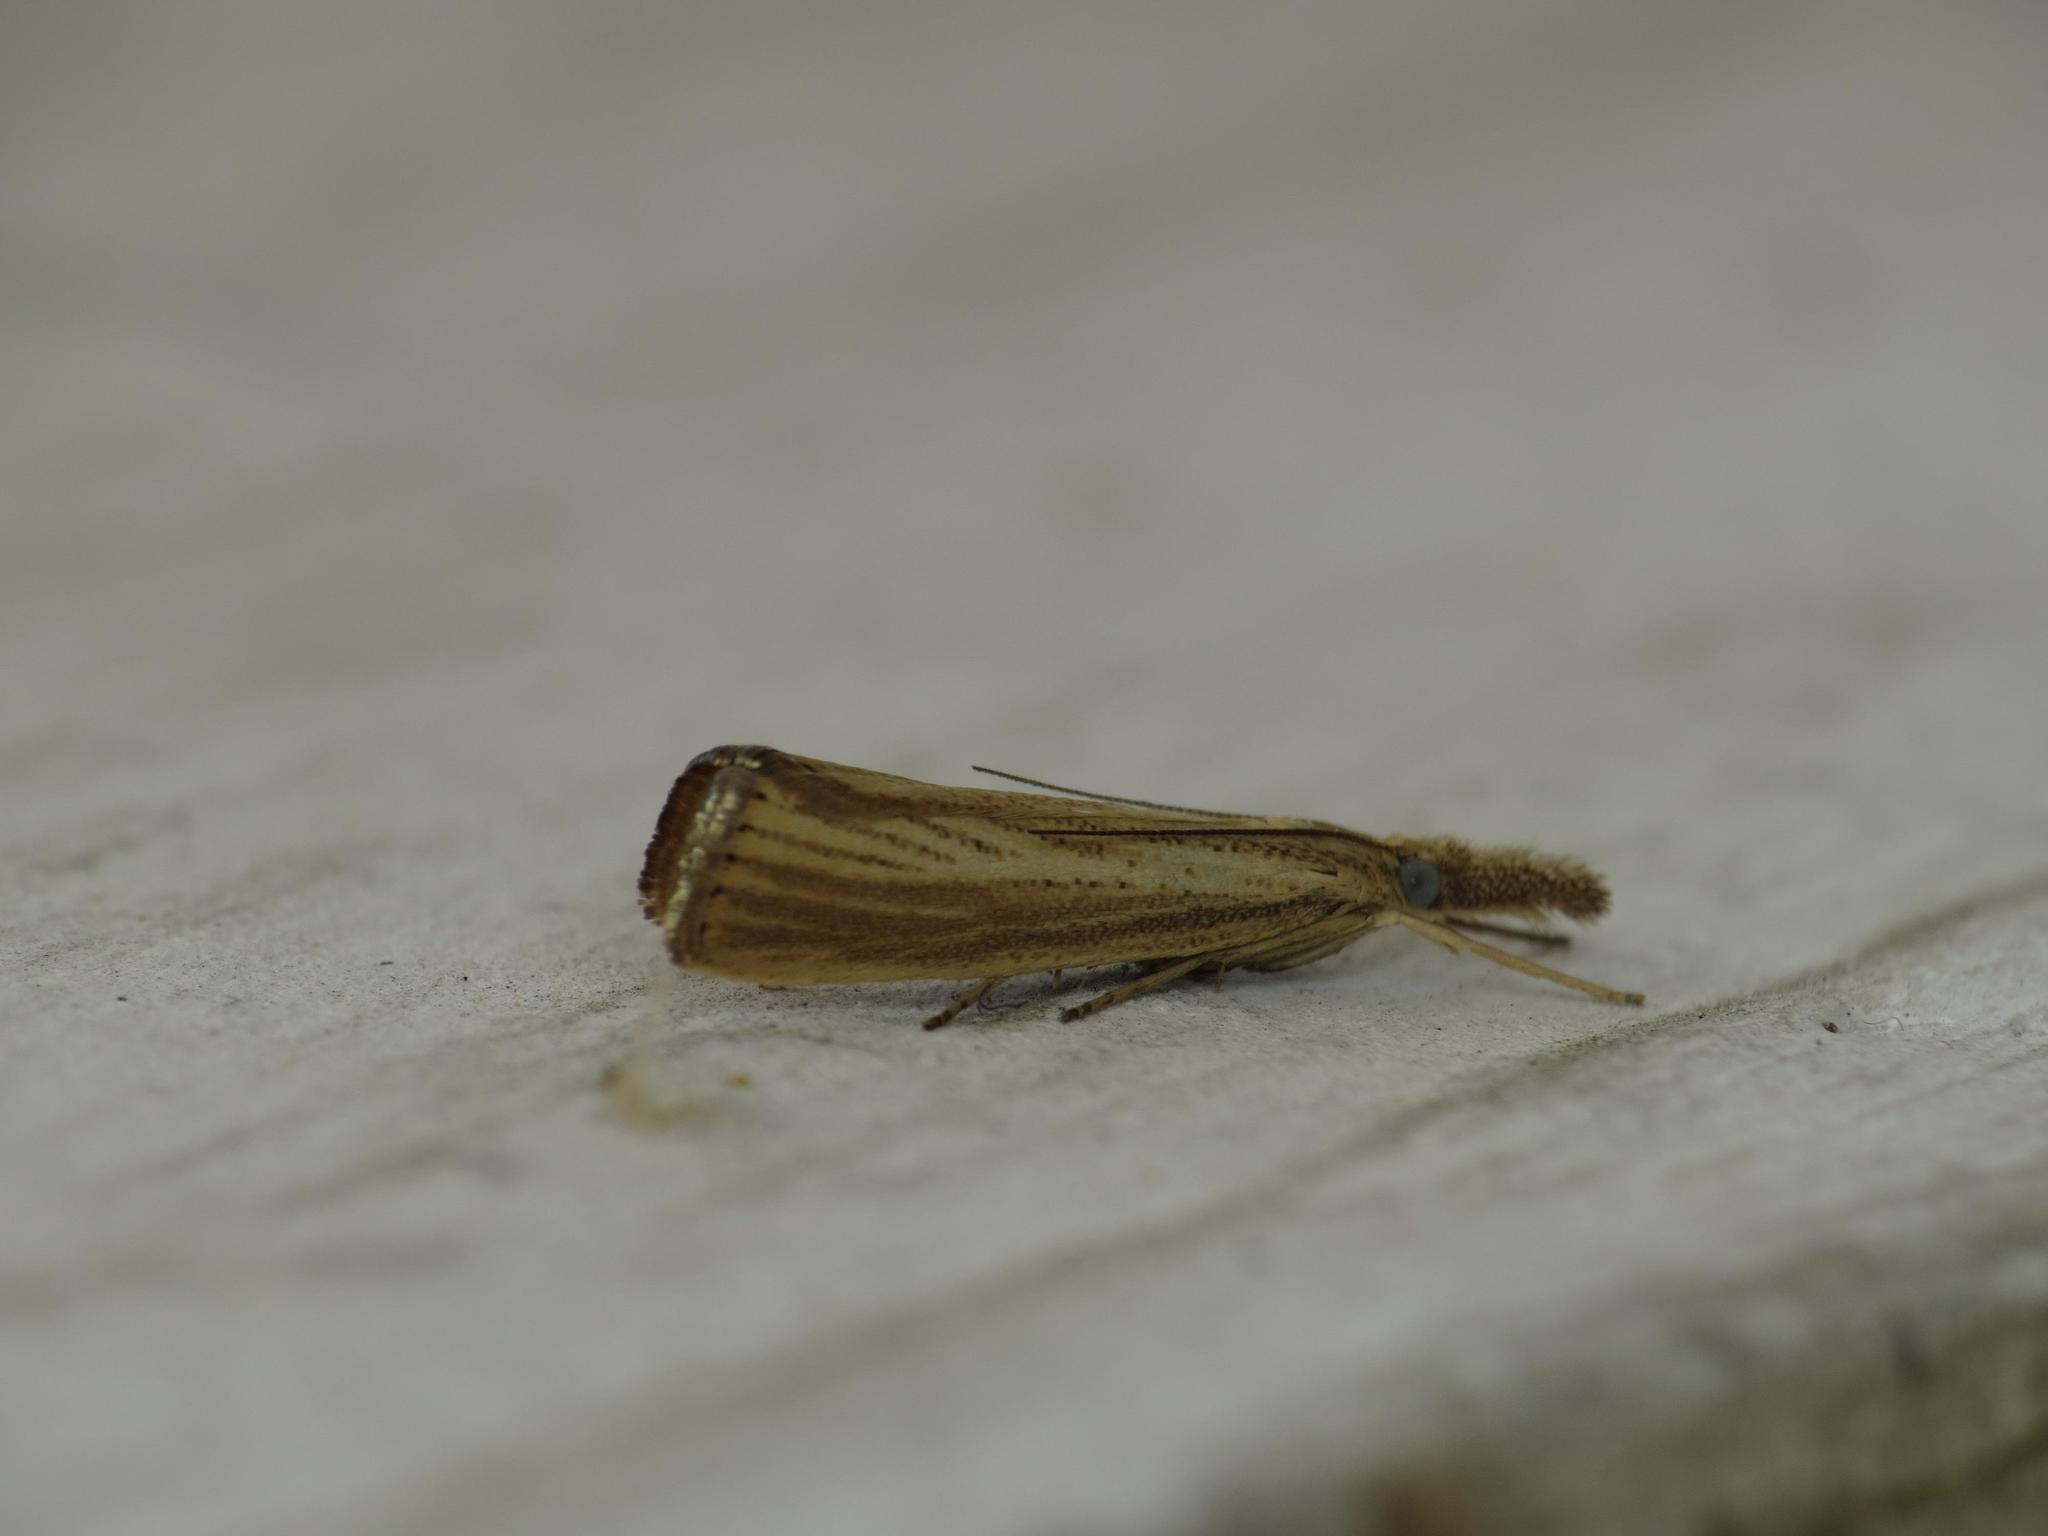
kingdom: Animalia
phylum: Arthropoda
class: Insecta
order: Lepidoptera
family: Crambidae
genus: Agriphila
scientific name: Agriphila straminella
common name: Straw grass-veneer
